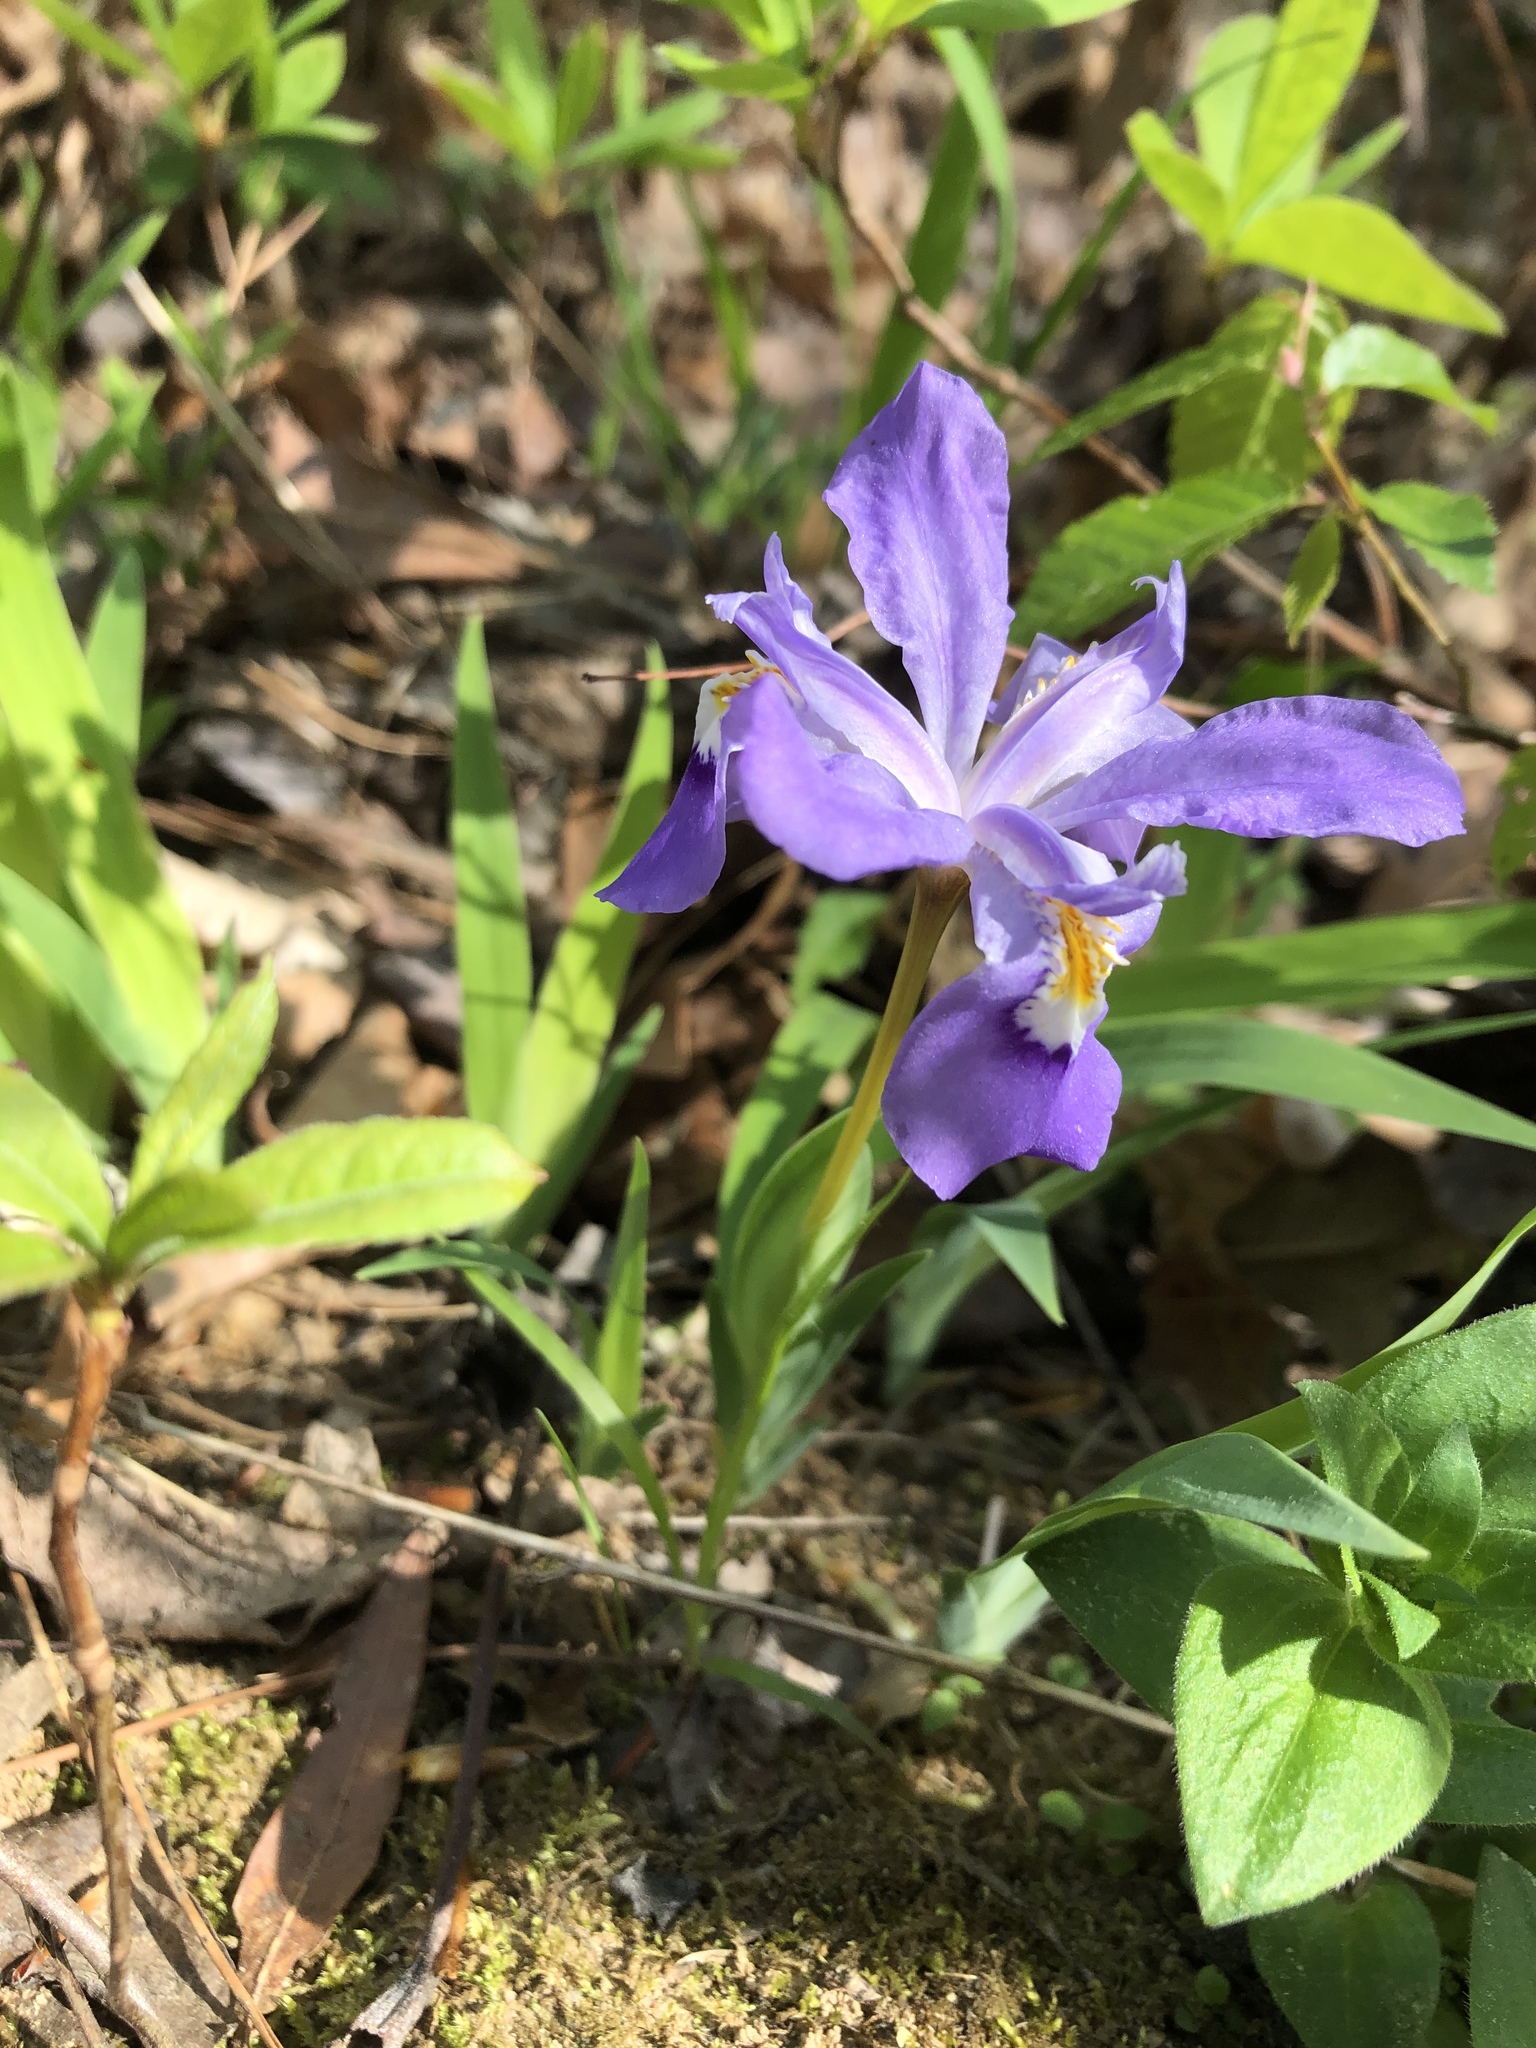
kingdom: Plantae
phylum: Tracheophyta
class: Liliopsida
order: Asparagales
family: Iridaceae
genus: Iris
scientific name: Iris cristata
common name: Crested iris
